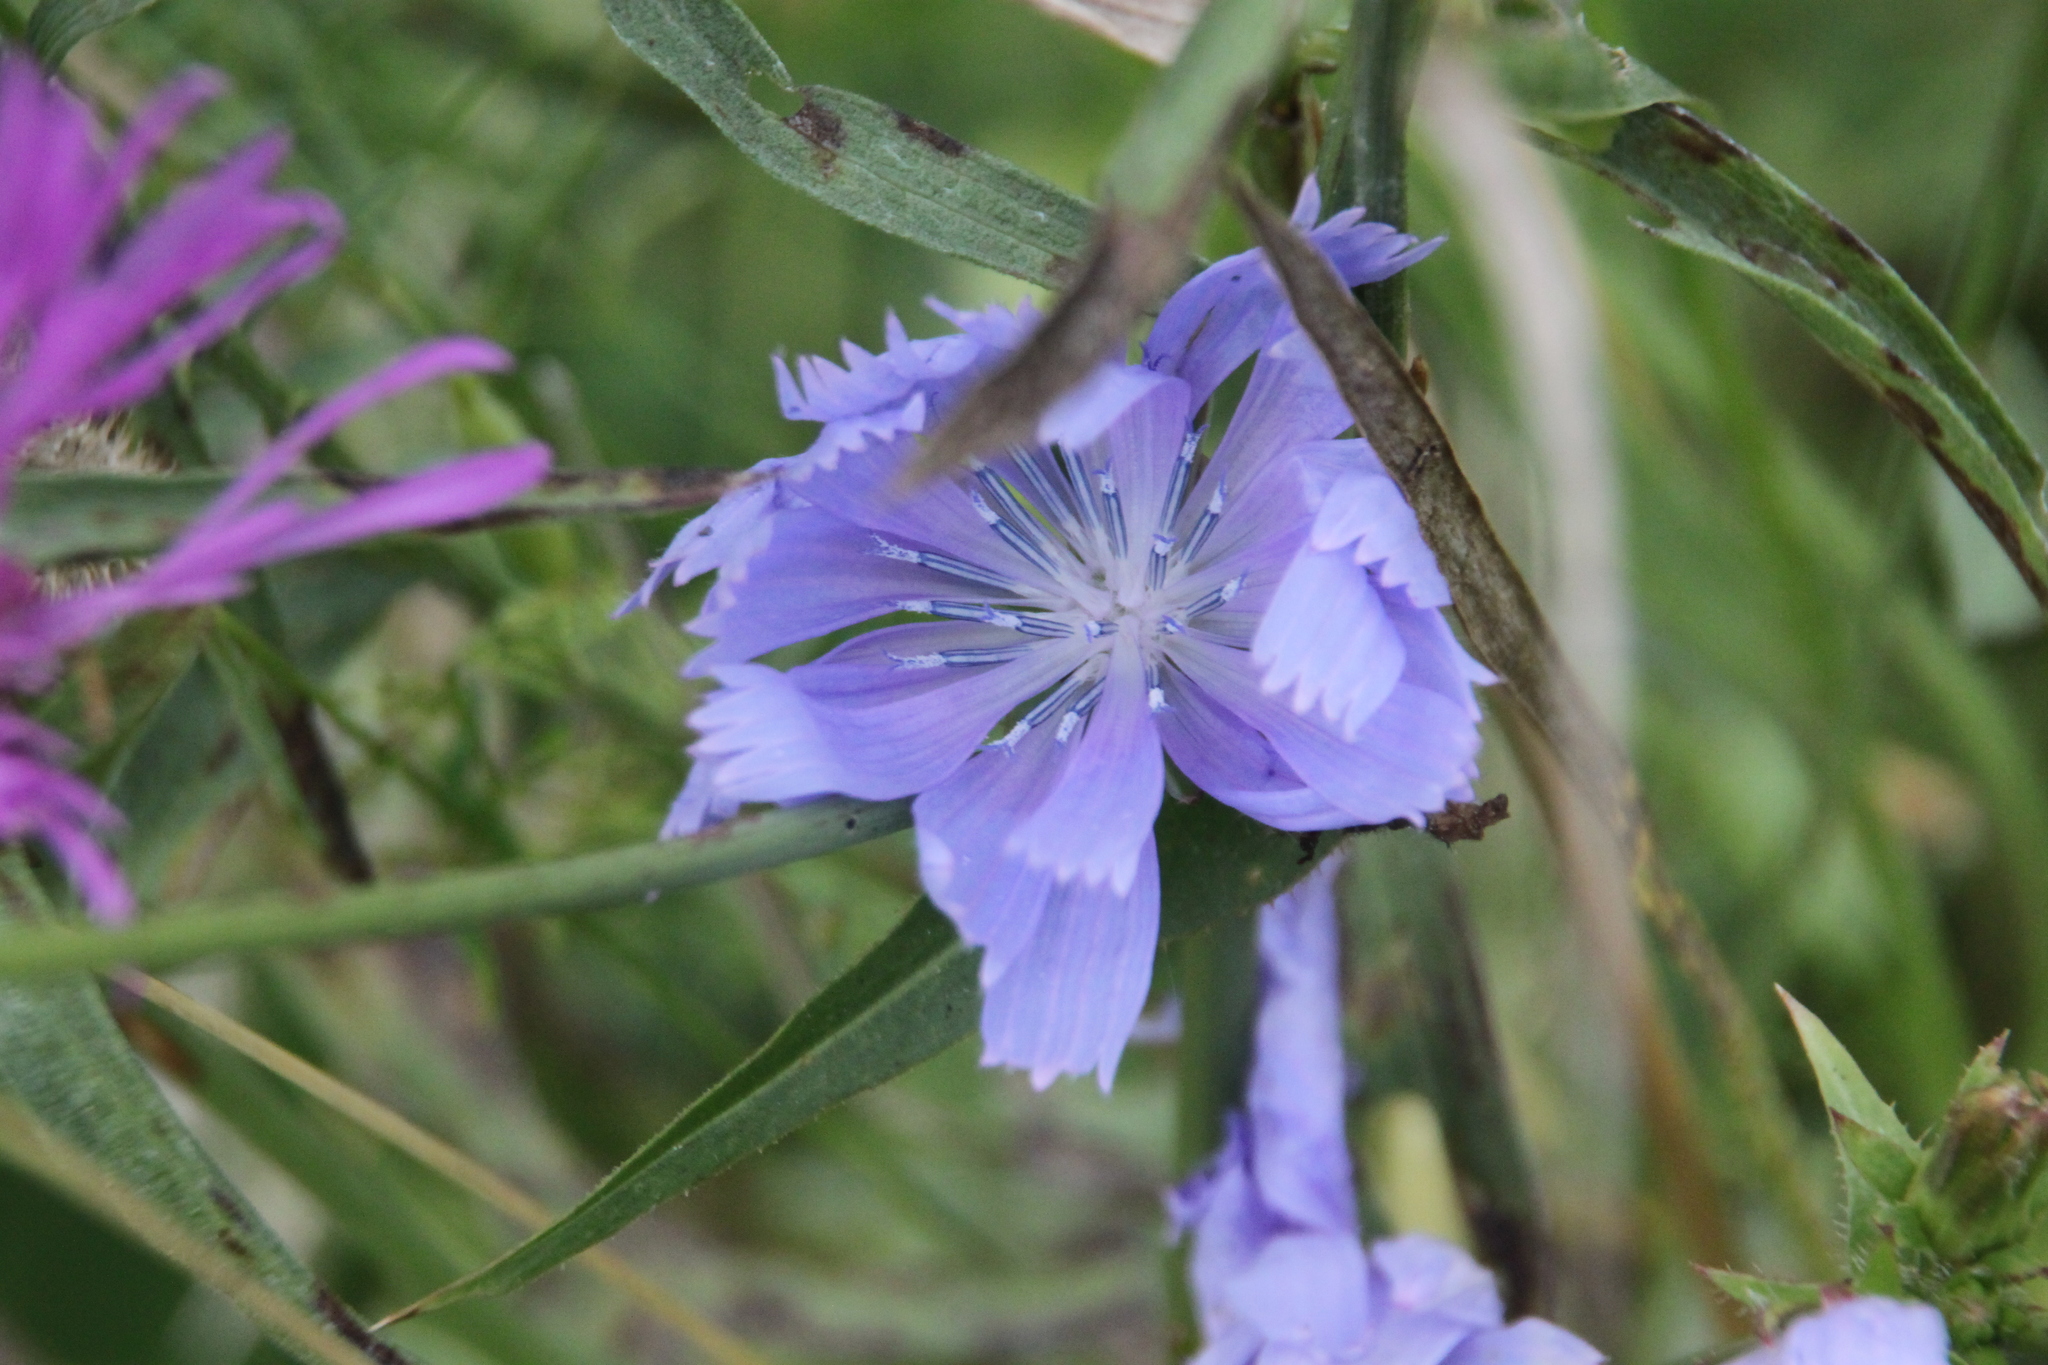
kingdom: Plantae
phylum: Tracheophyta
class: Magnoliopsida
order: Asterales
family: Asteraceae
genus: Cichorium
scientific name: Cichorium intybus
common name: Chicory
